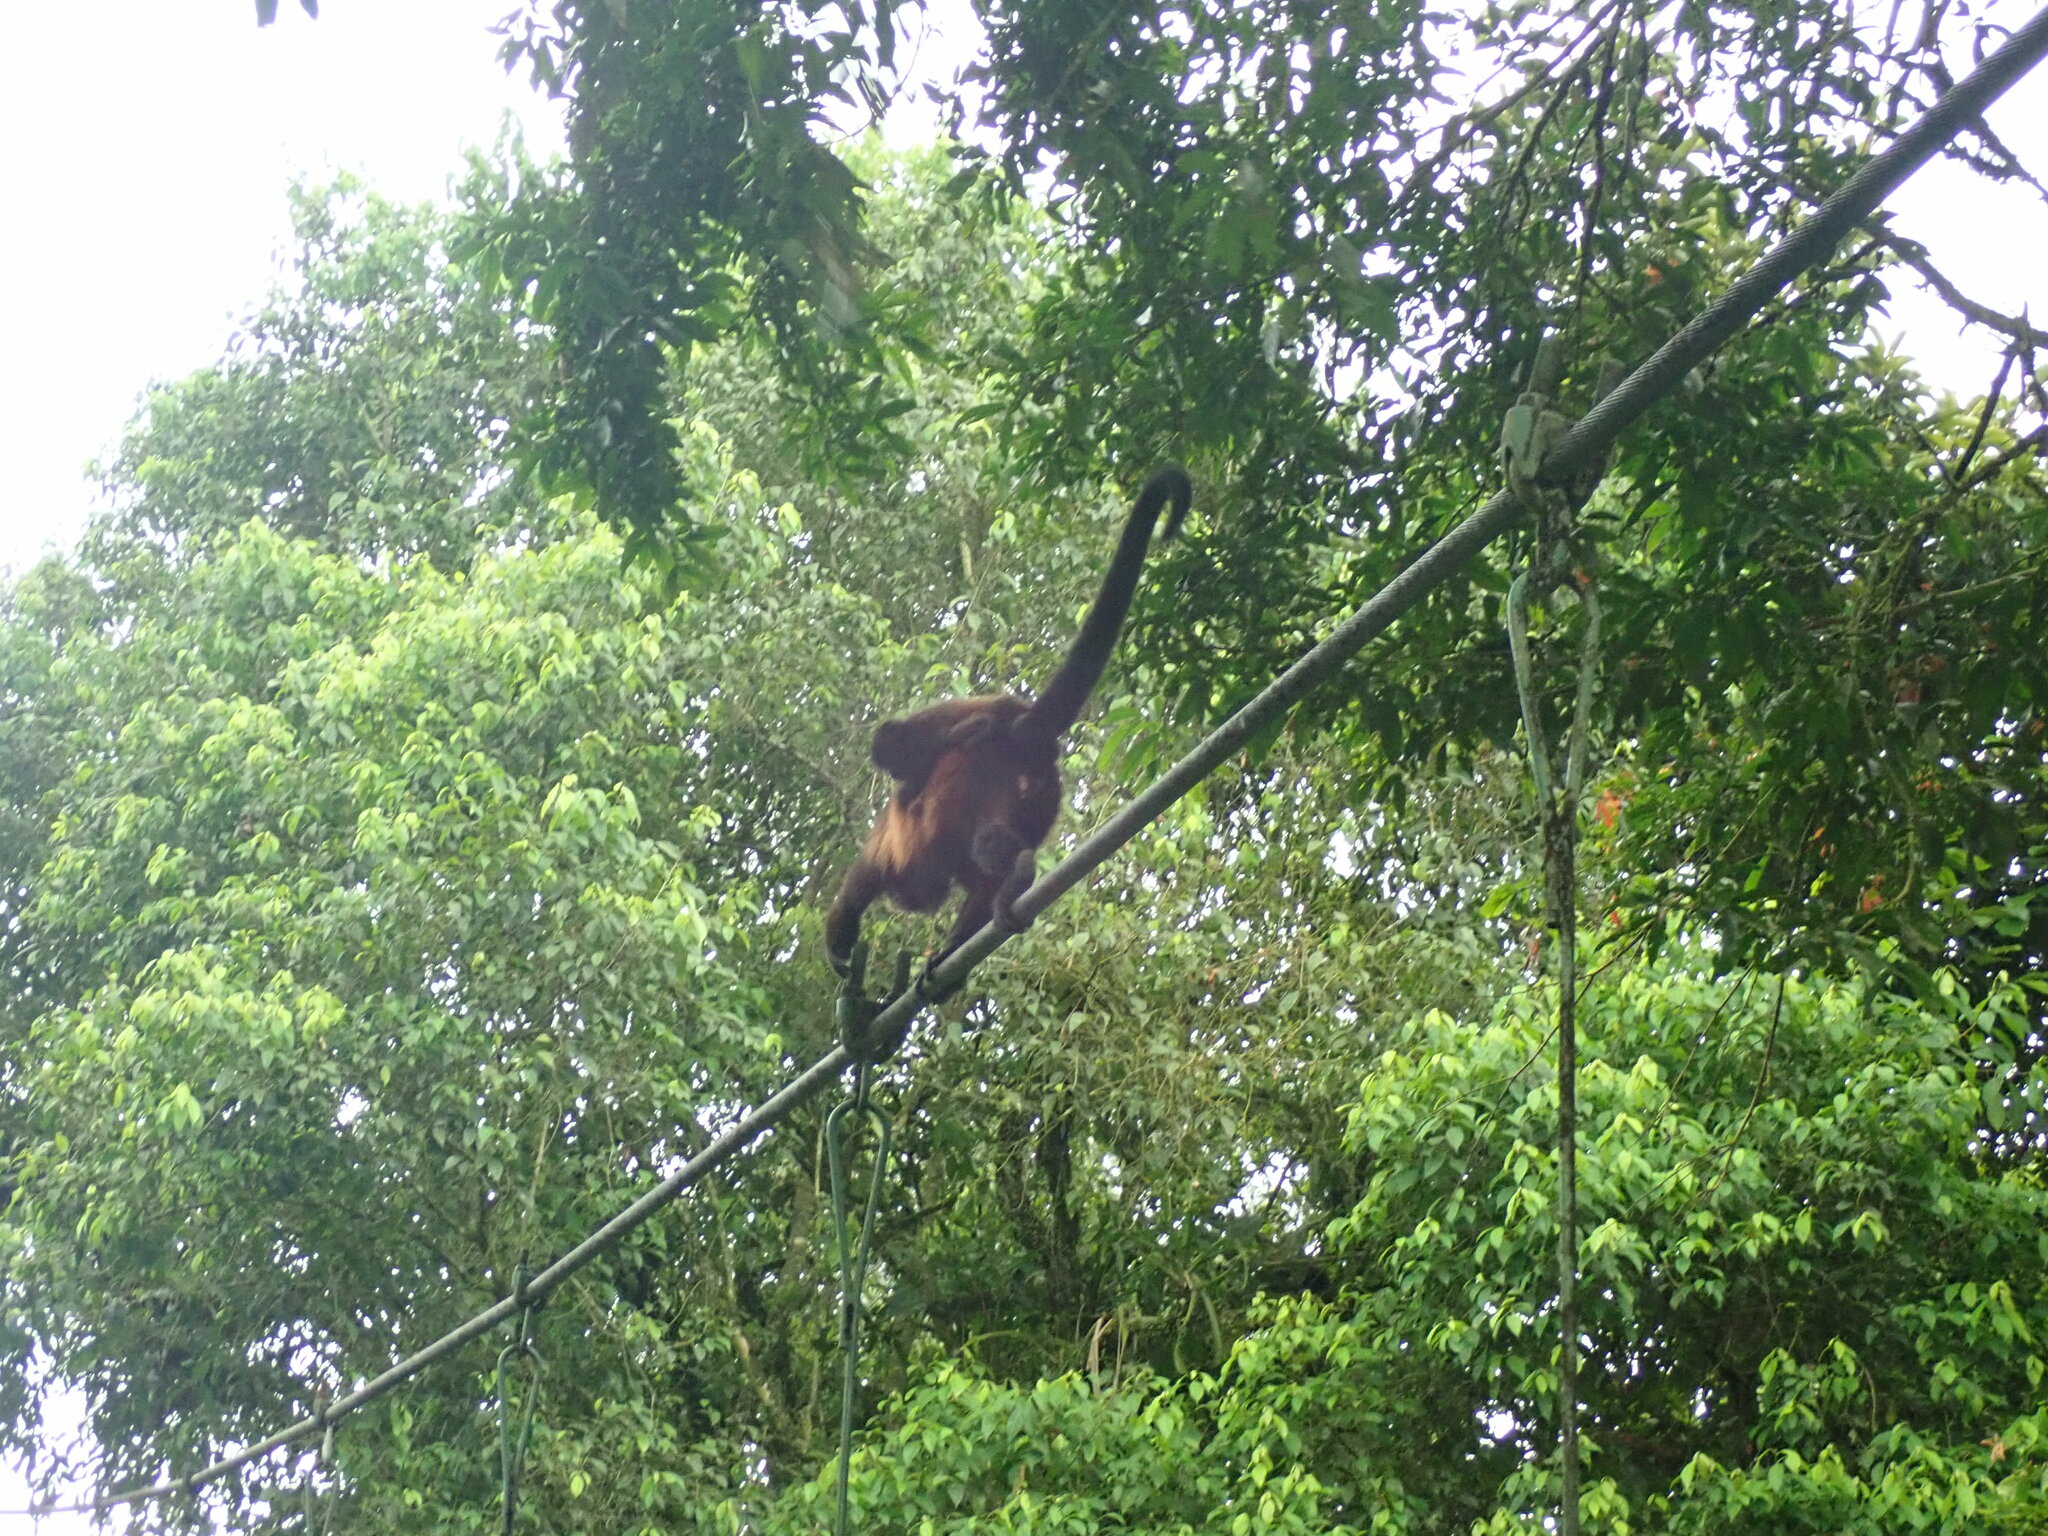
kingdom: Animalia
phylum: Chordata
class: Mammalia
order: Primates
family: Atelidae
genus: Alouatta
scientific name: Alouatta palliata
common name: Mantled howler
